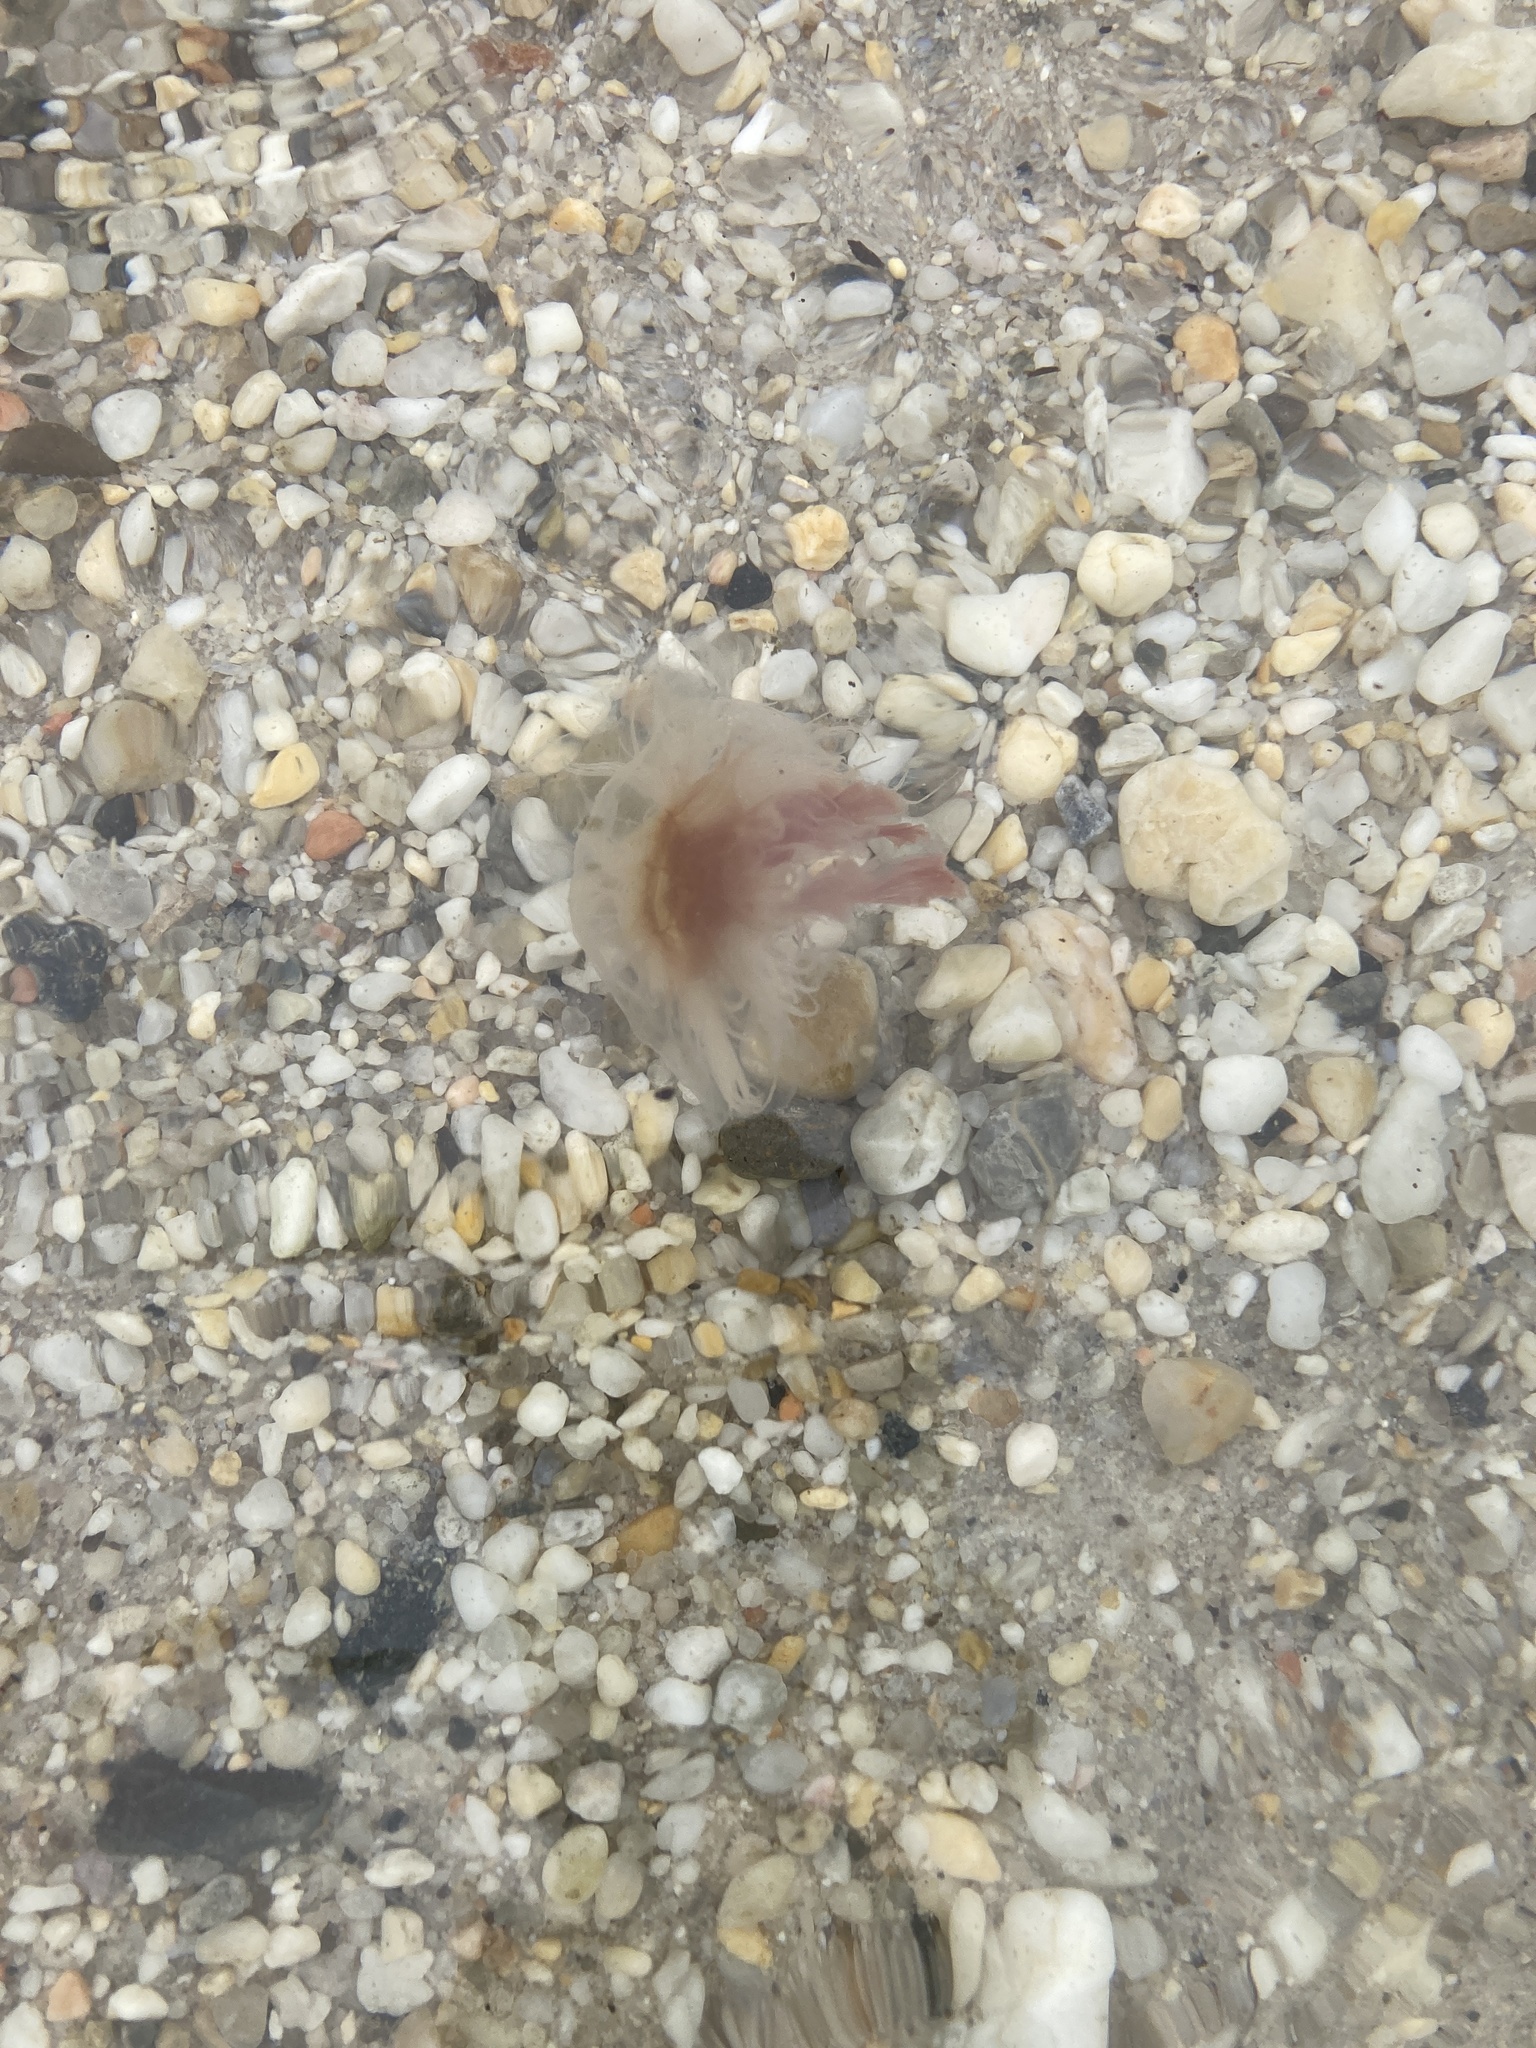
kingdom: Animalia
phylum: Cnidaria
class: Scyphozoa
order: Semaeostomeae
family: Cyaneidae
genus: Cyanea
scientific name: Cyanea fulva
